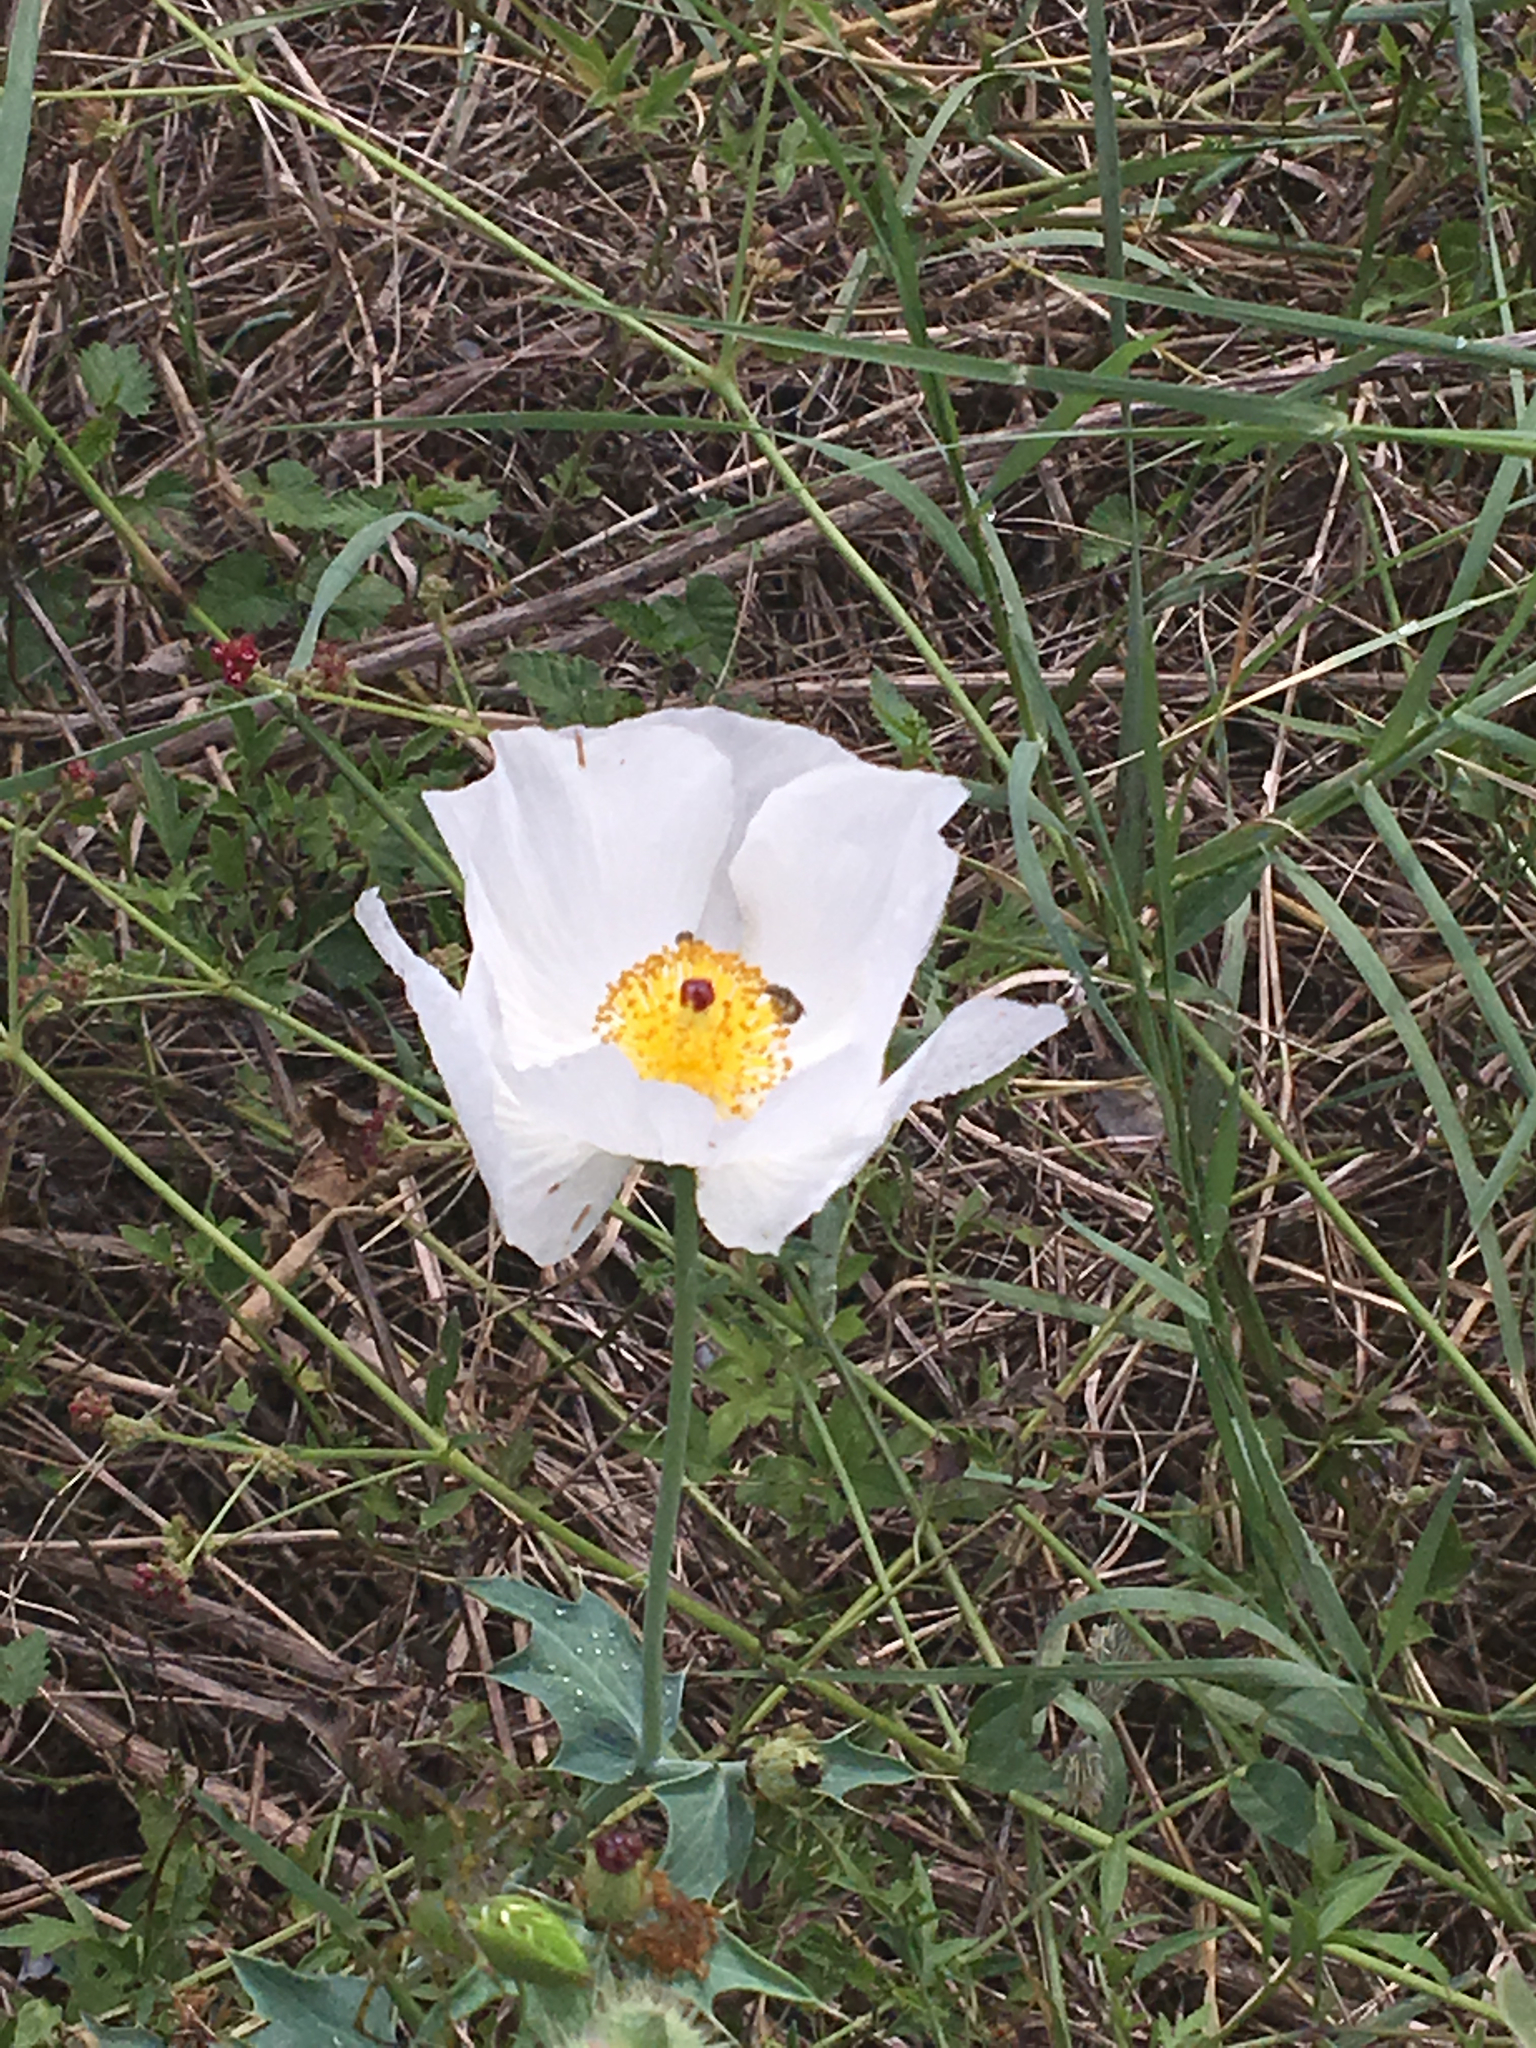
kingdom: Plantae
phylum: Tracheophyta
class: Magnoliopsida
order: Ranunculales
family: Papaveraceae
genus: Argemone
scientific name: Argemone albiflora
